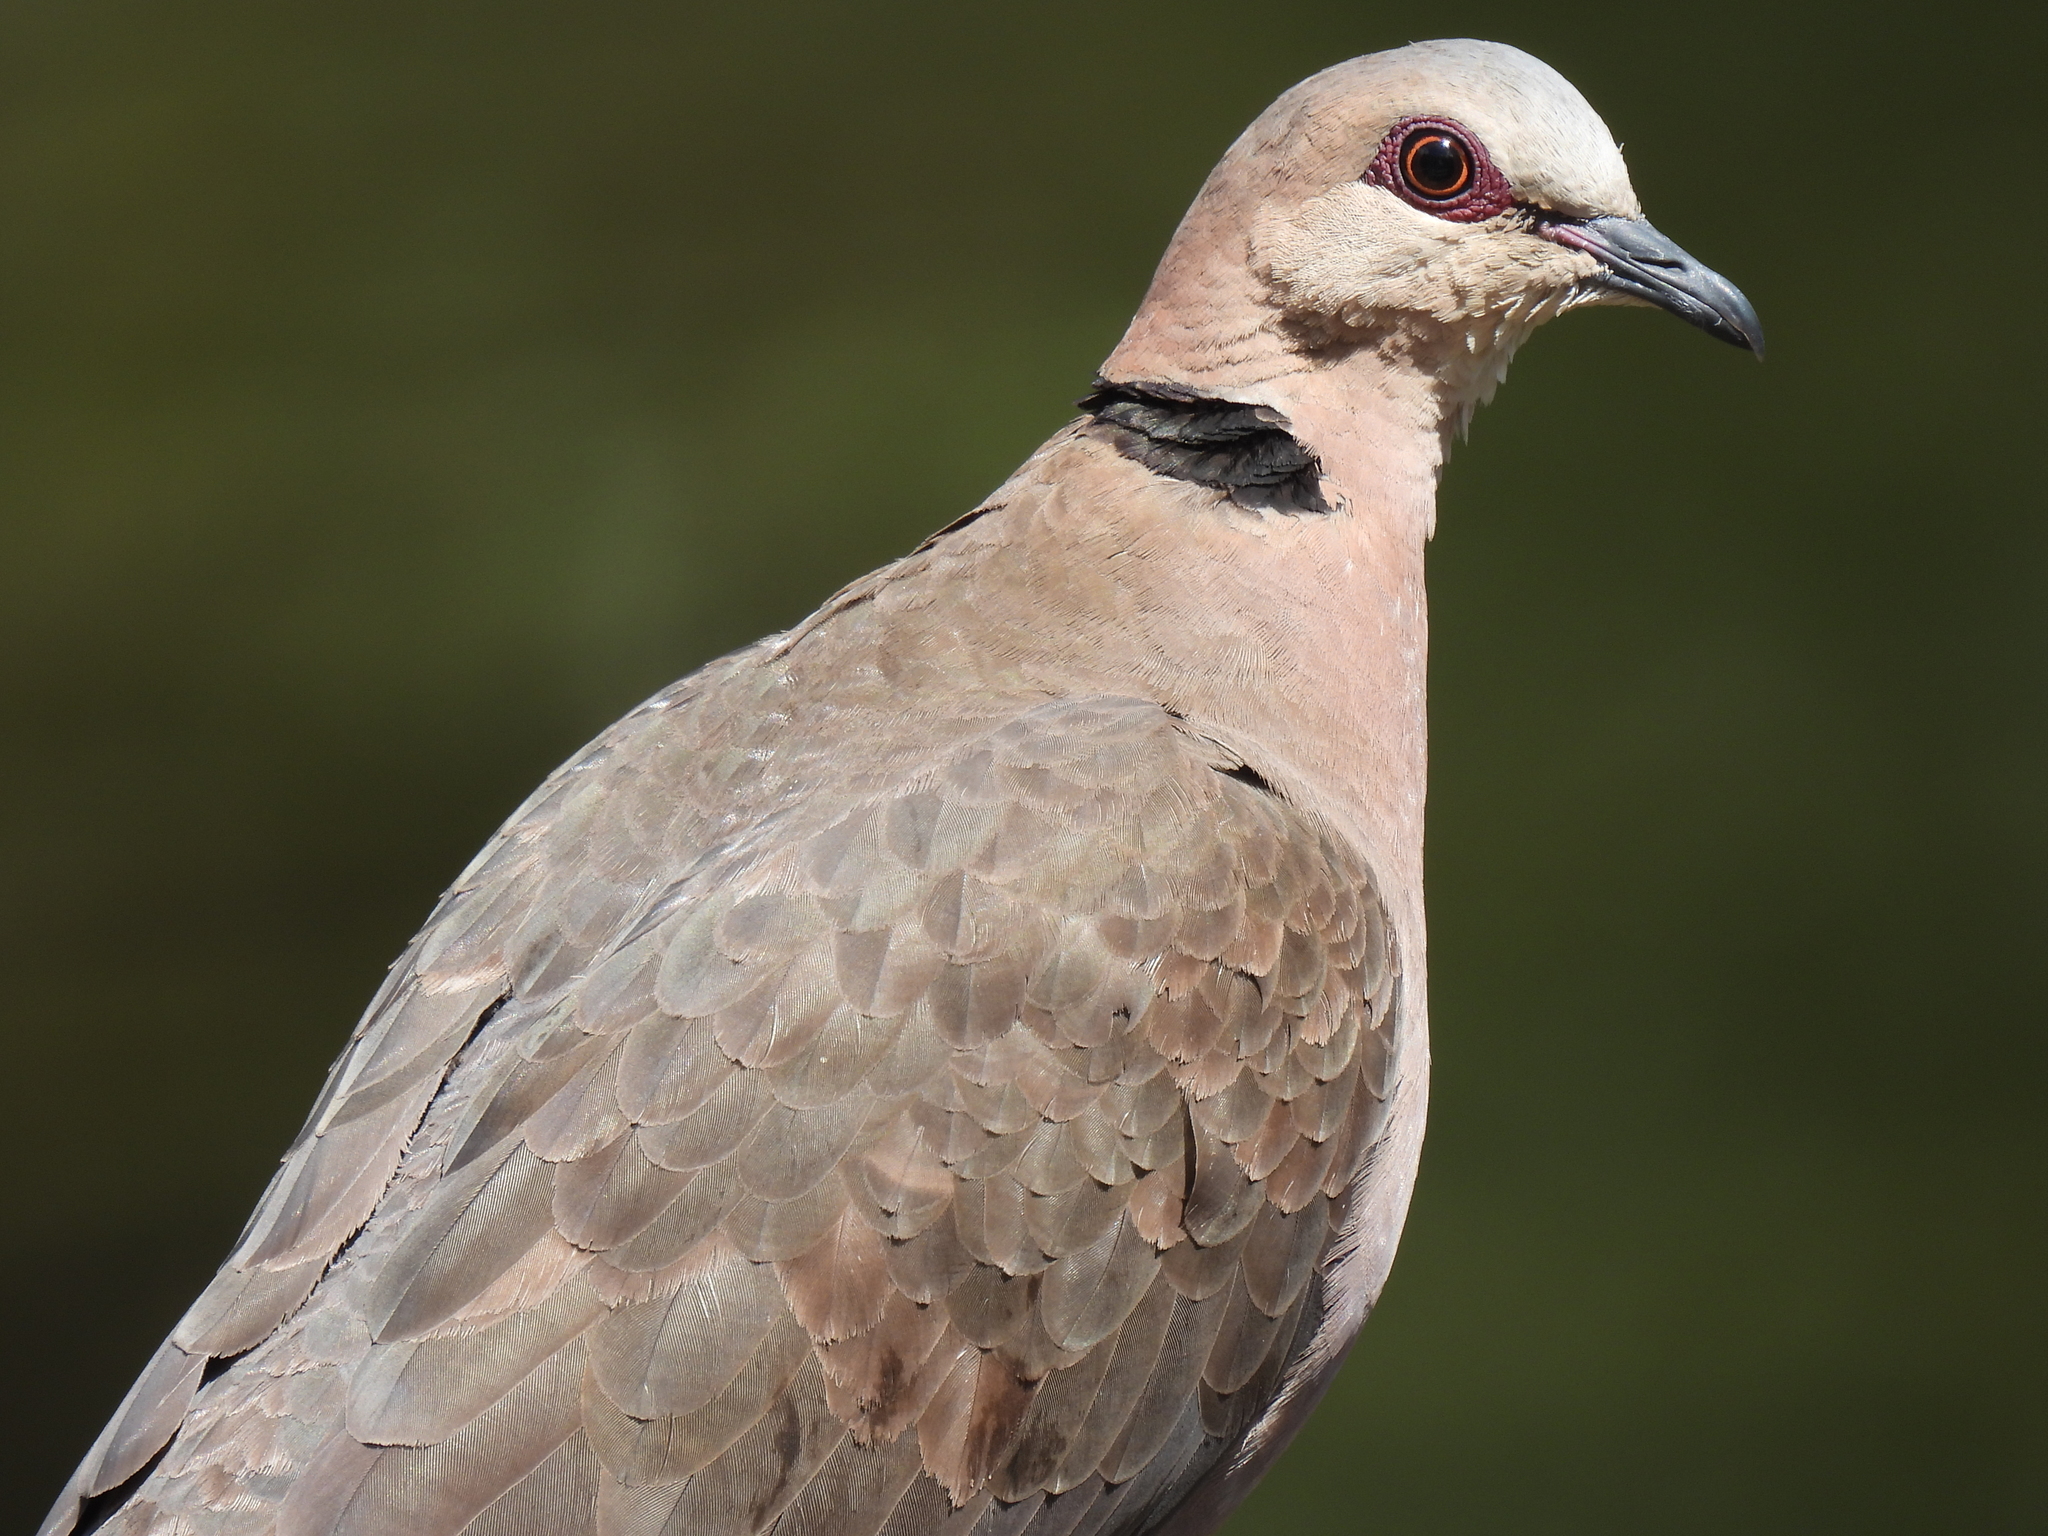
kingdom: Animalia
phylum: Chordata
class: Aves
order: Columbiformes
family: Columbidae
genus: Streptopelia
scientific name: Streptopelia semitorquata
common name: Red-eyed dove
